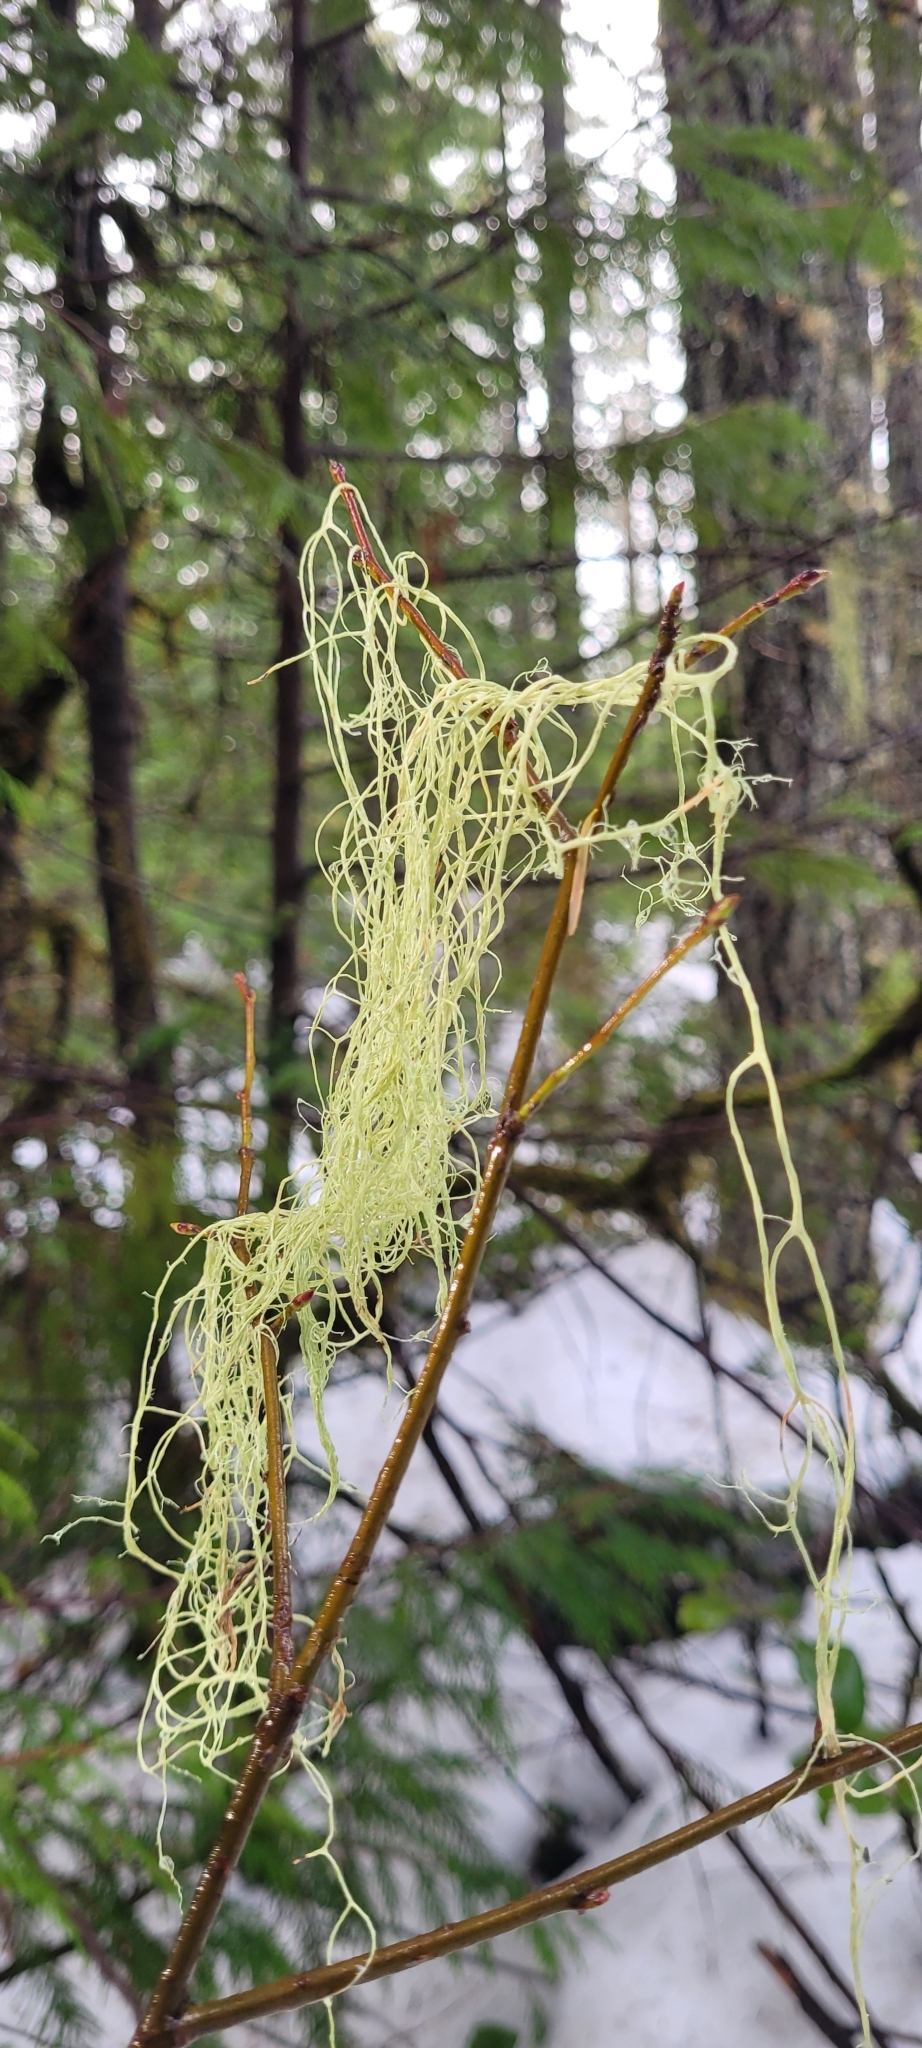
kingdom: Fungi
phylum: Ascomycota
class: Lecanoromycetes
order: Lecanorales
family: Parmeliaceae
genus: Usnea
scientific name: Usnea dasopoga
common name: Fishbone beard lichen
